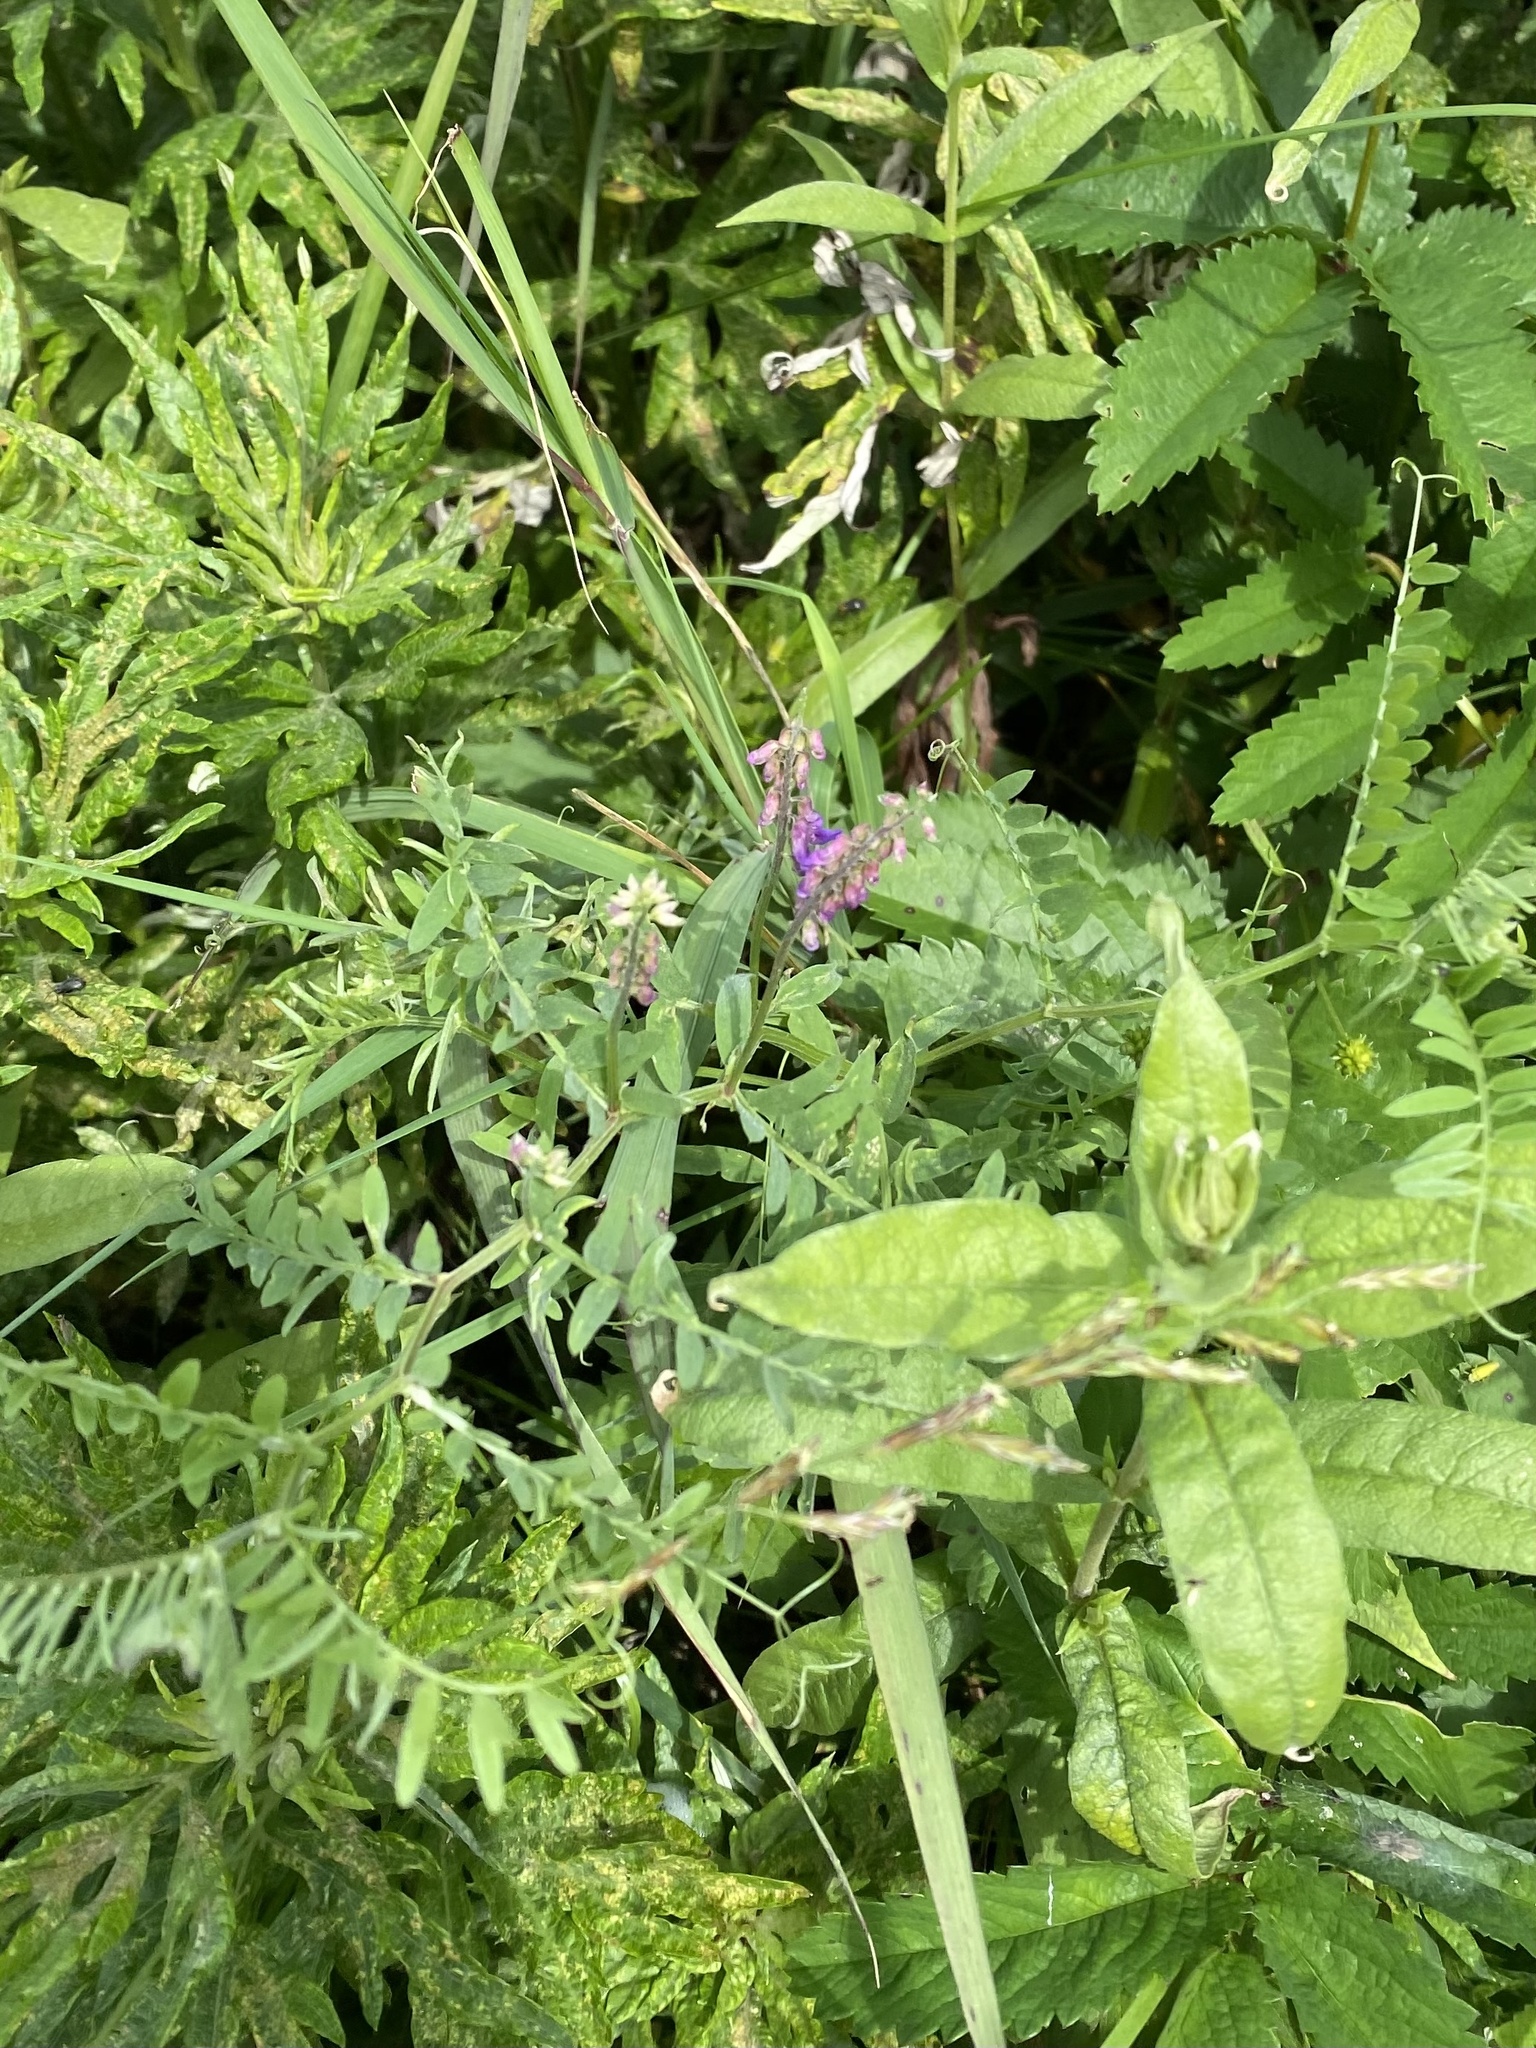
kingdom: Plantae
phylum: Tracheophyta
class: Magnoliopsida
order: Fabales
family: Fabaceae
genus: Vicia
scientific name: Vicia cracca
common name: Bird vetch
